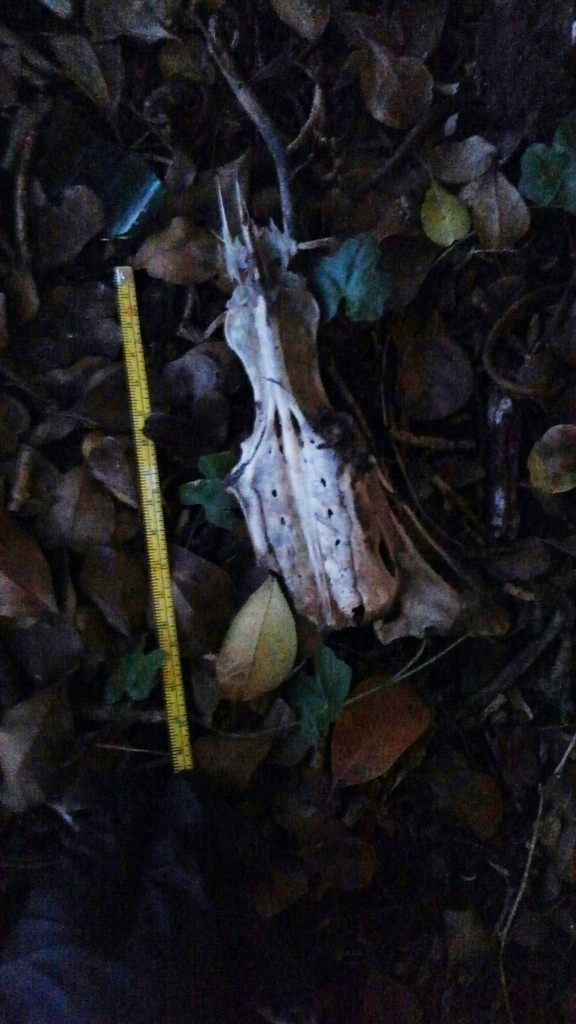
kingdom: Animalia
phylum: Chordata
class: Aves
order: Anseriformes
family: Anatidae
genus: Cairina
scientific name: Cairina moschata
